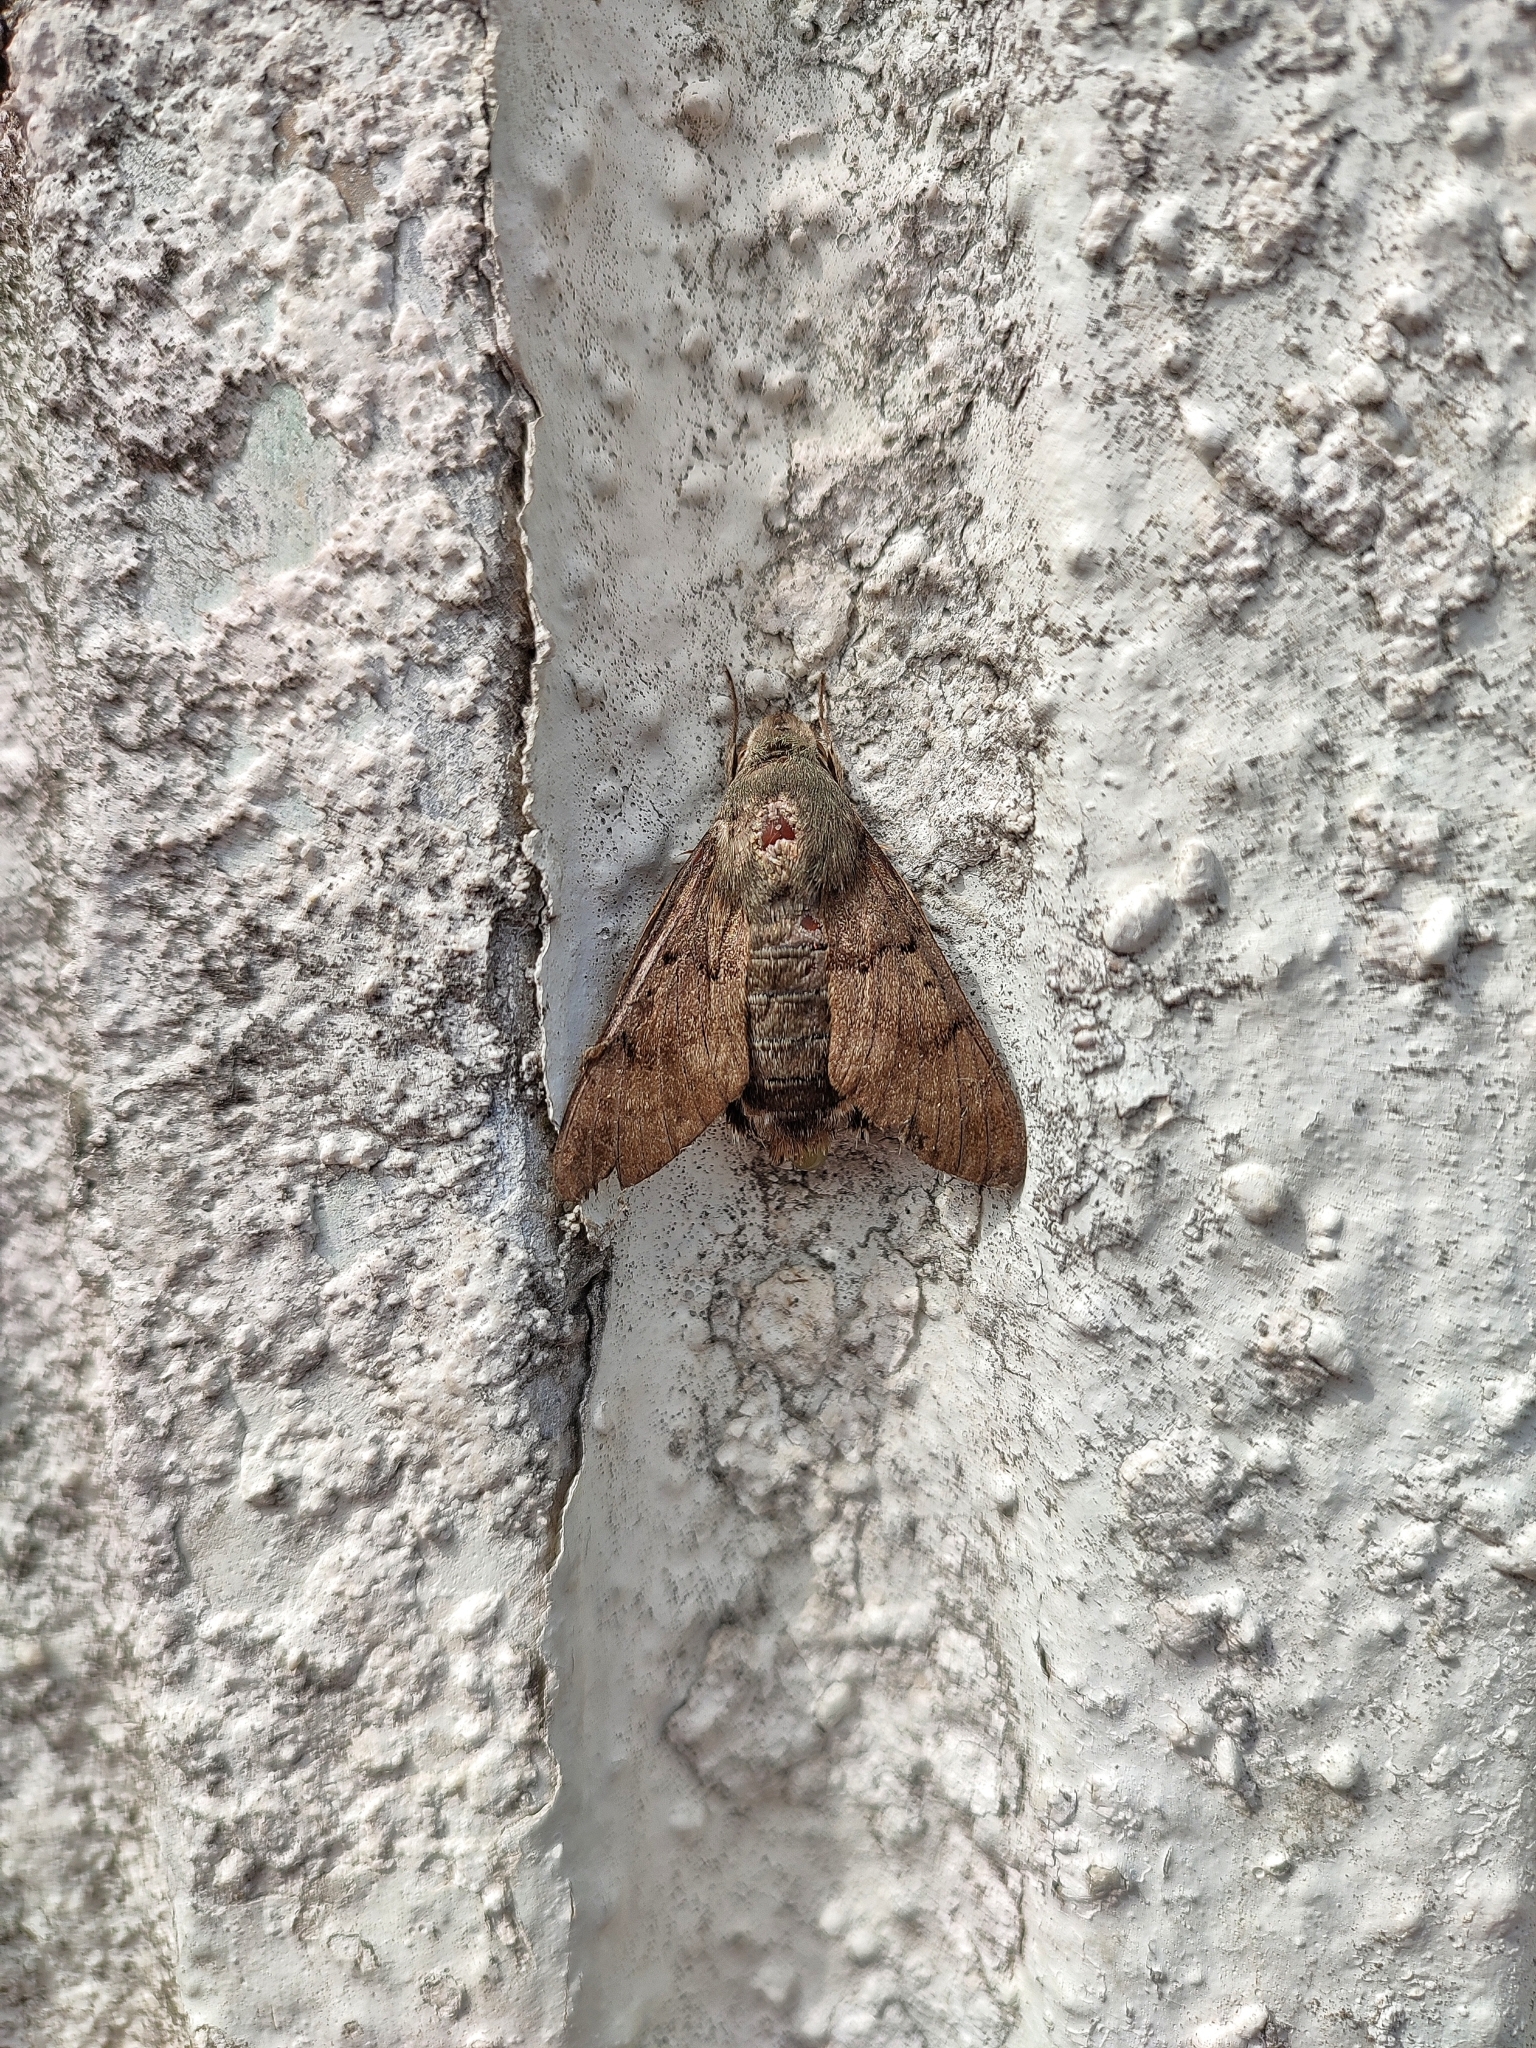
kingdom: Animalia
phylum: Arthropoda
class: Insecta
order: Lepidoptera
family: Sphingidae
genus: Macroglossum
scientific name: Macroglossum stellatarum
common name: Humming-bird hawk-moth
